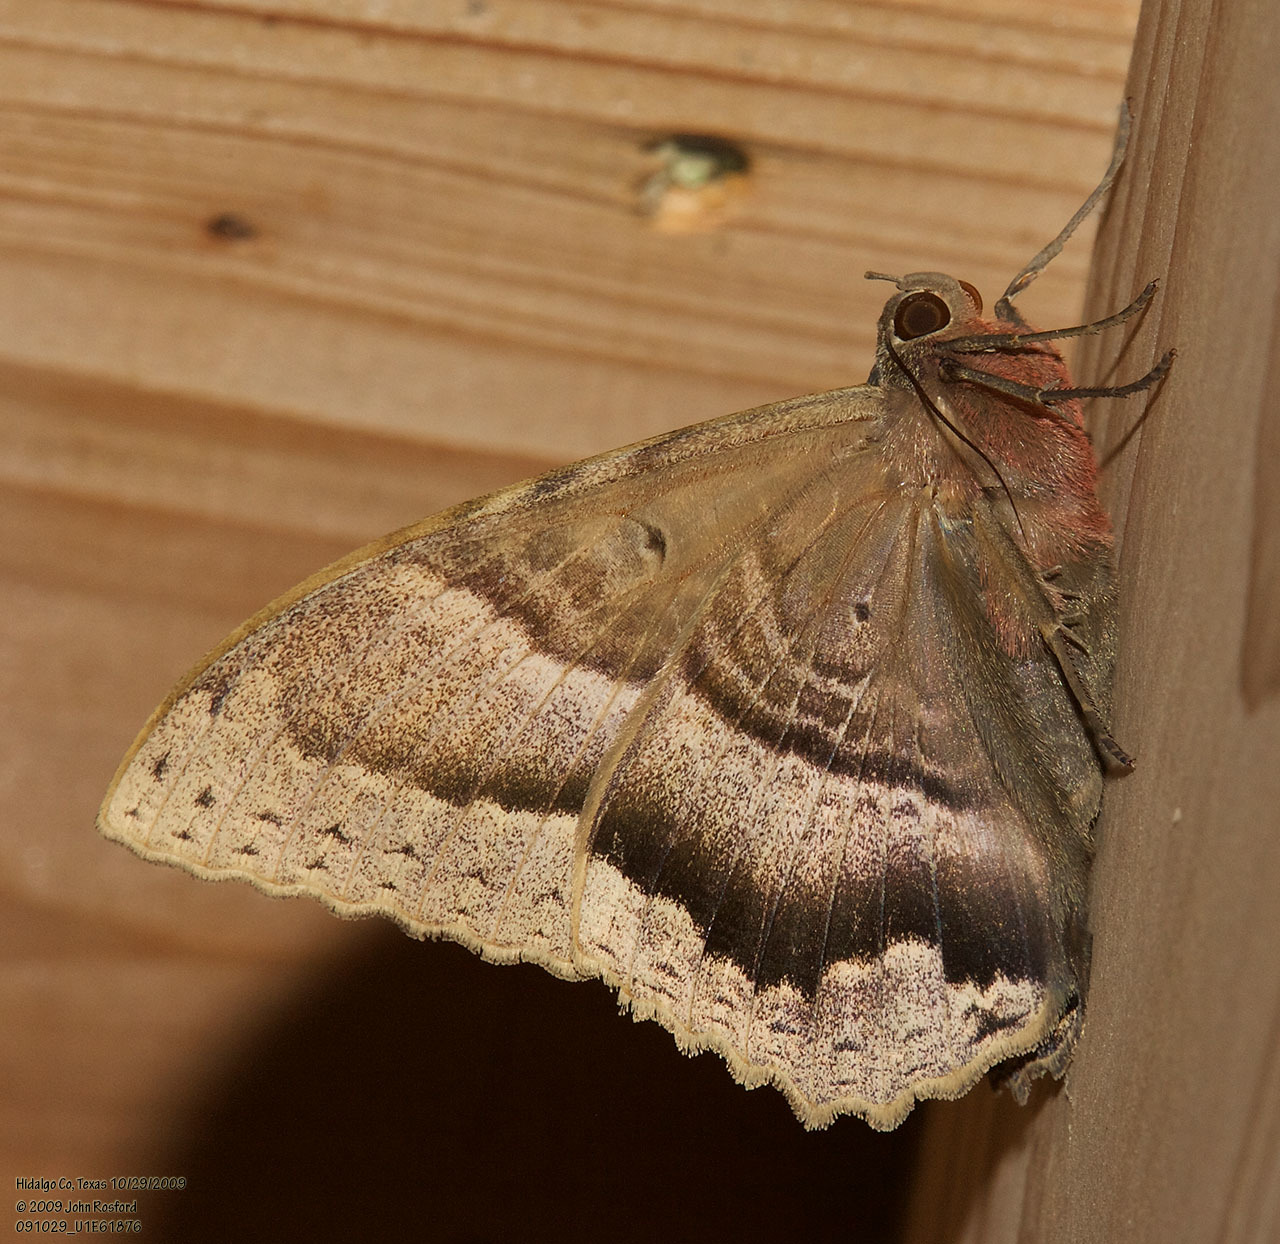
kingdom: Animalia
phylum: Arthropoda
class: Insecta
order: Lepidoptera
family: Erebidae
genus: Ascalapha
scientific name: Ascalapha odorata
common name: Black witch
